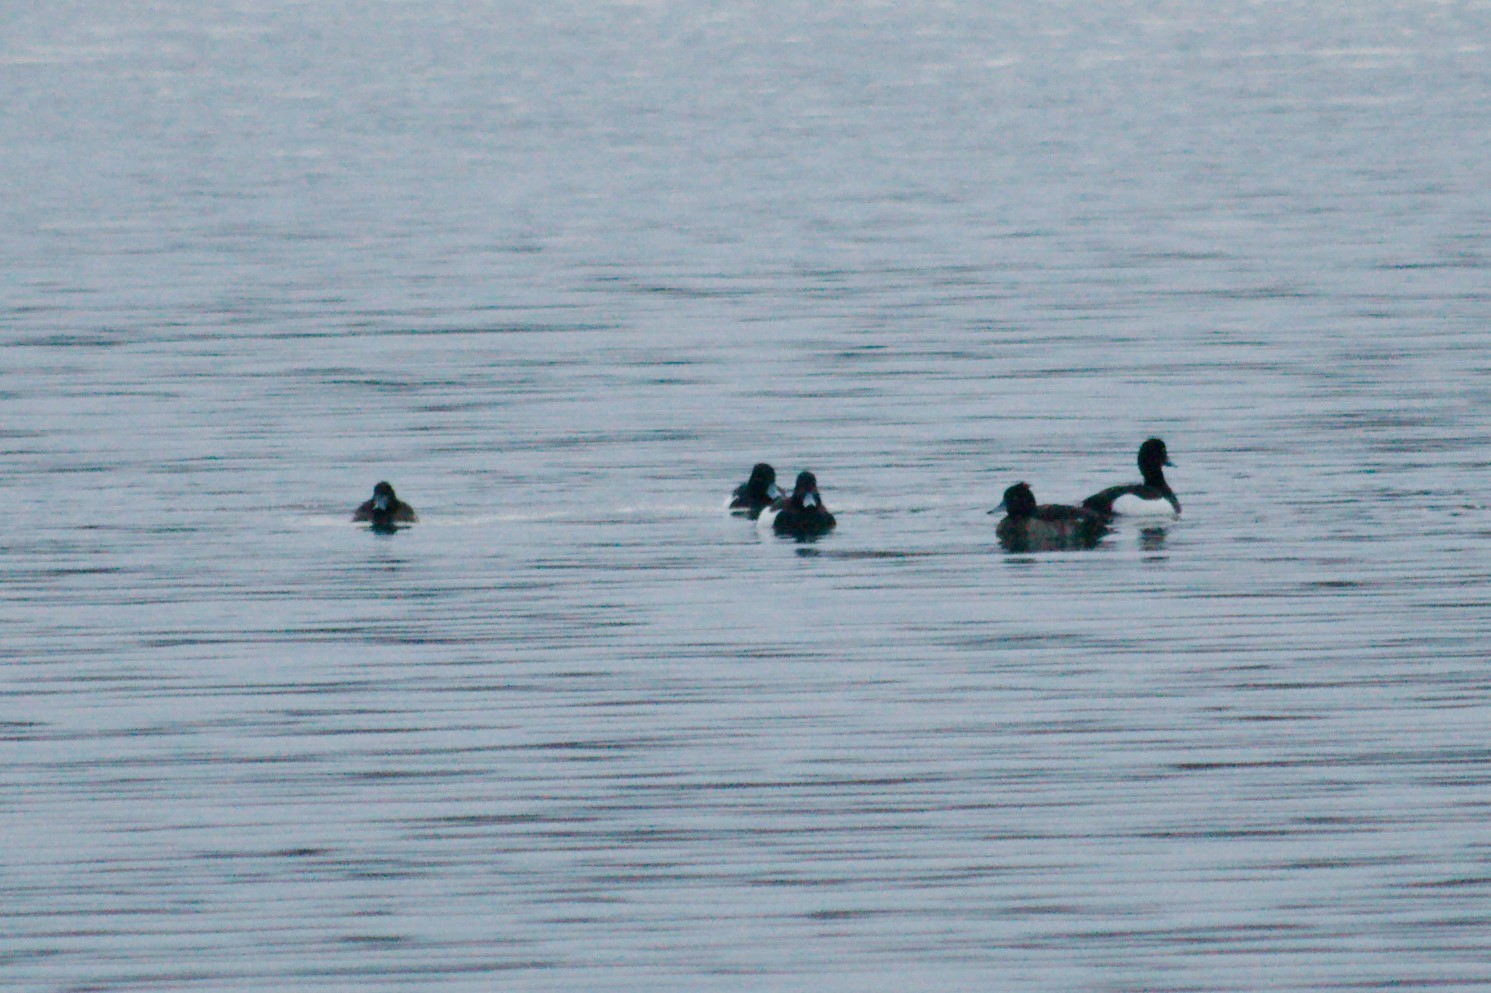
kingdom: Animalia
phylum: Chordata
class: Aves
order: Anseriformes
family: Anatidae
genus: Aythya
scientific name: Aythya fuligula
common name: Tufted duck
